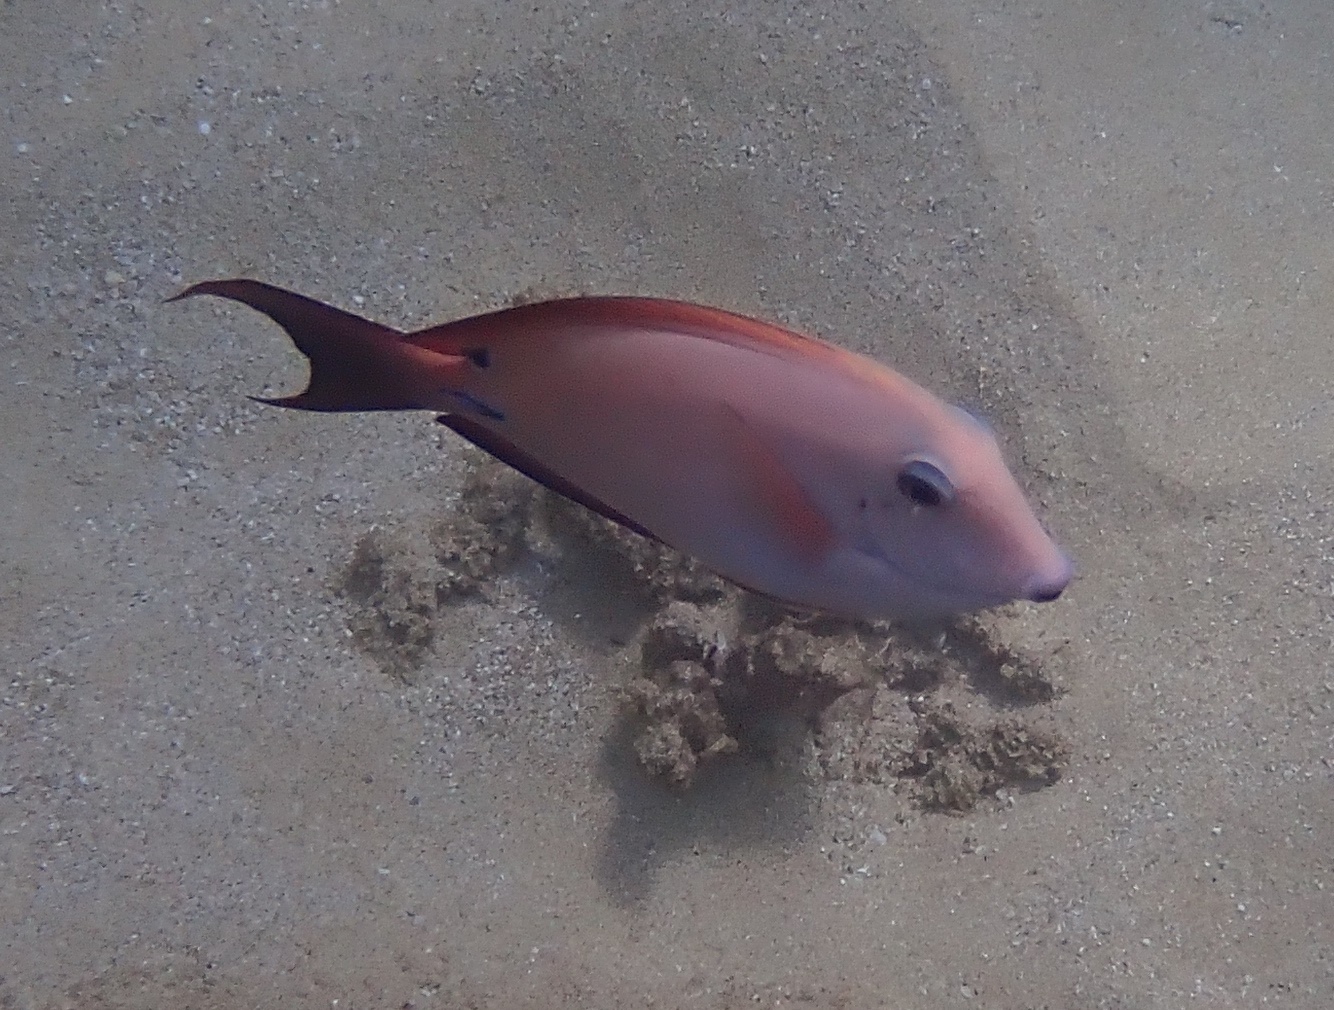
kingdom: Animalia
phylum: Chordata
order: Perciformes
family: Acanthuridae
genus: Acanthurus
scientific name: Acanthurus nigrofuscus
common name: Blackspot surgeonfish
